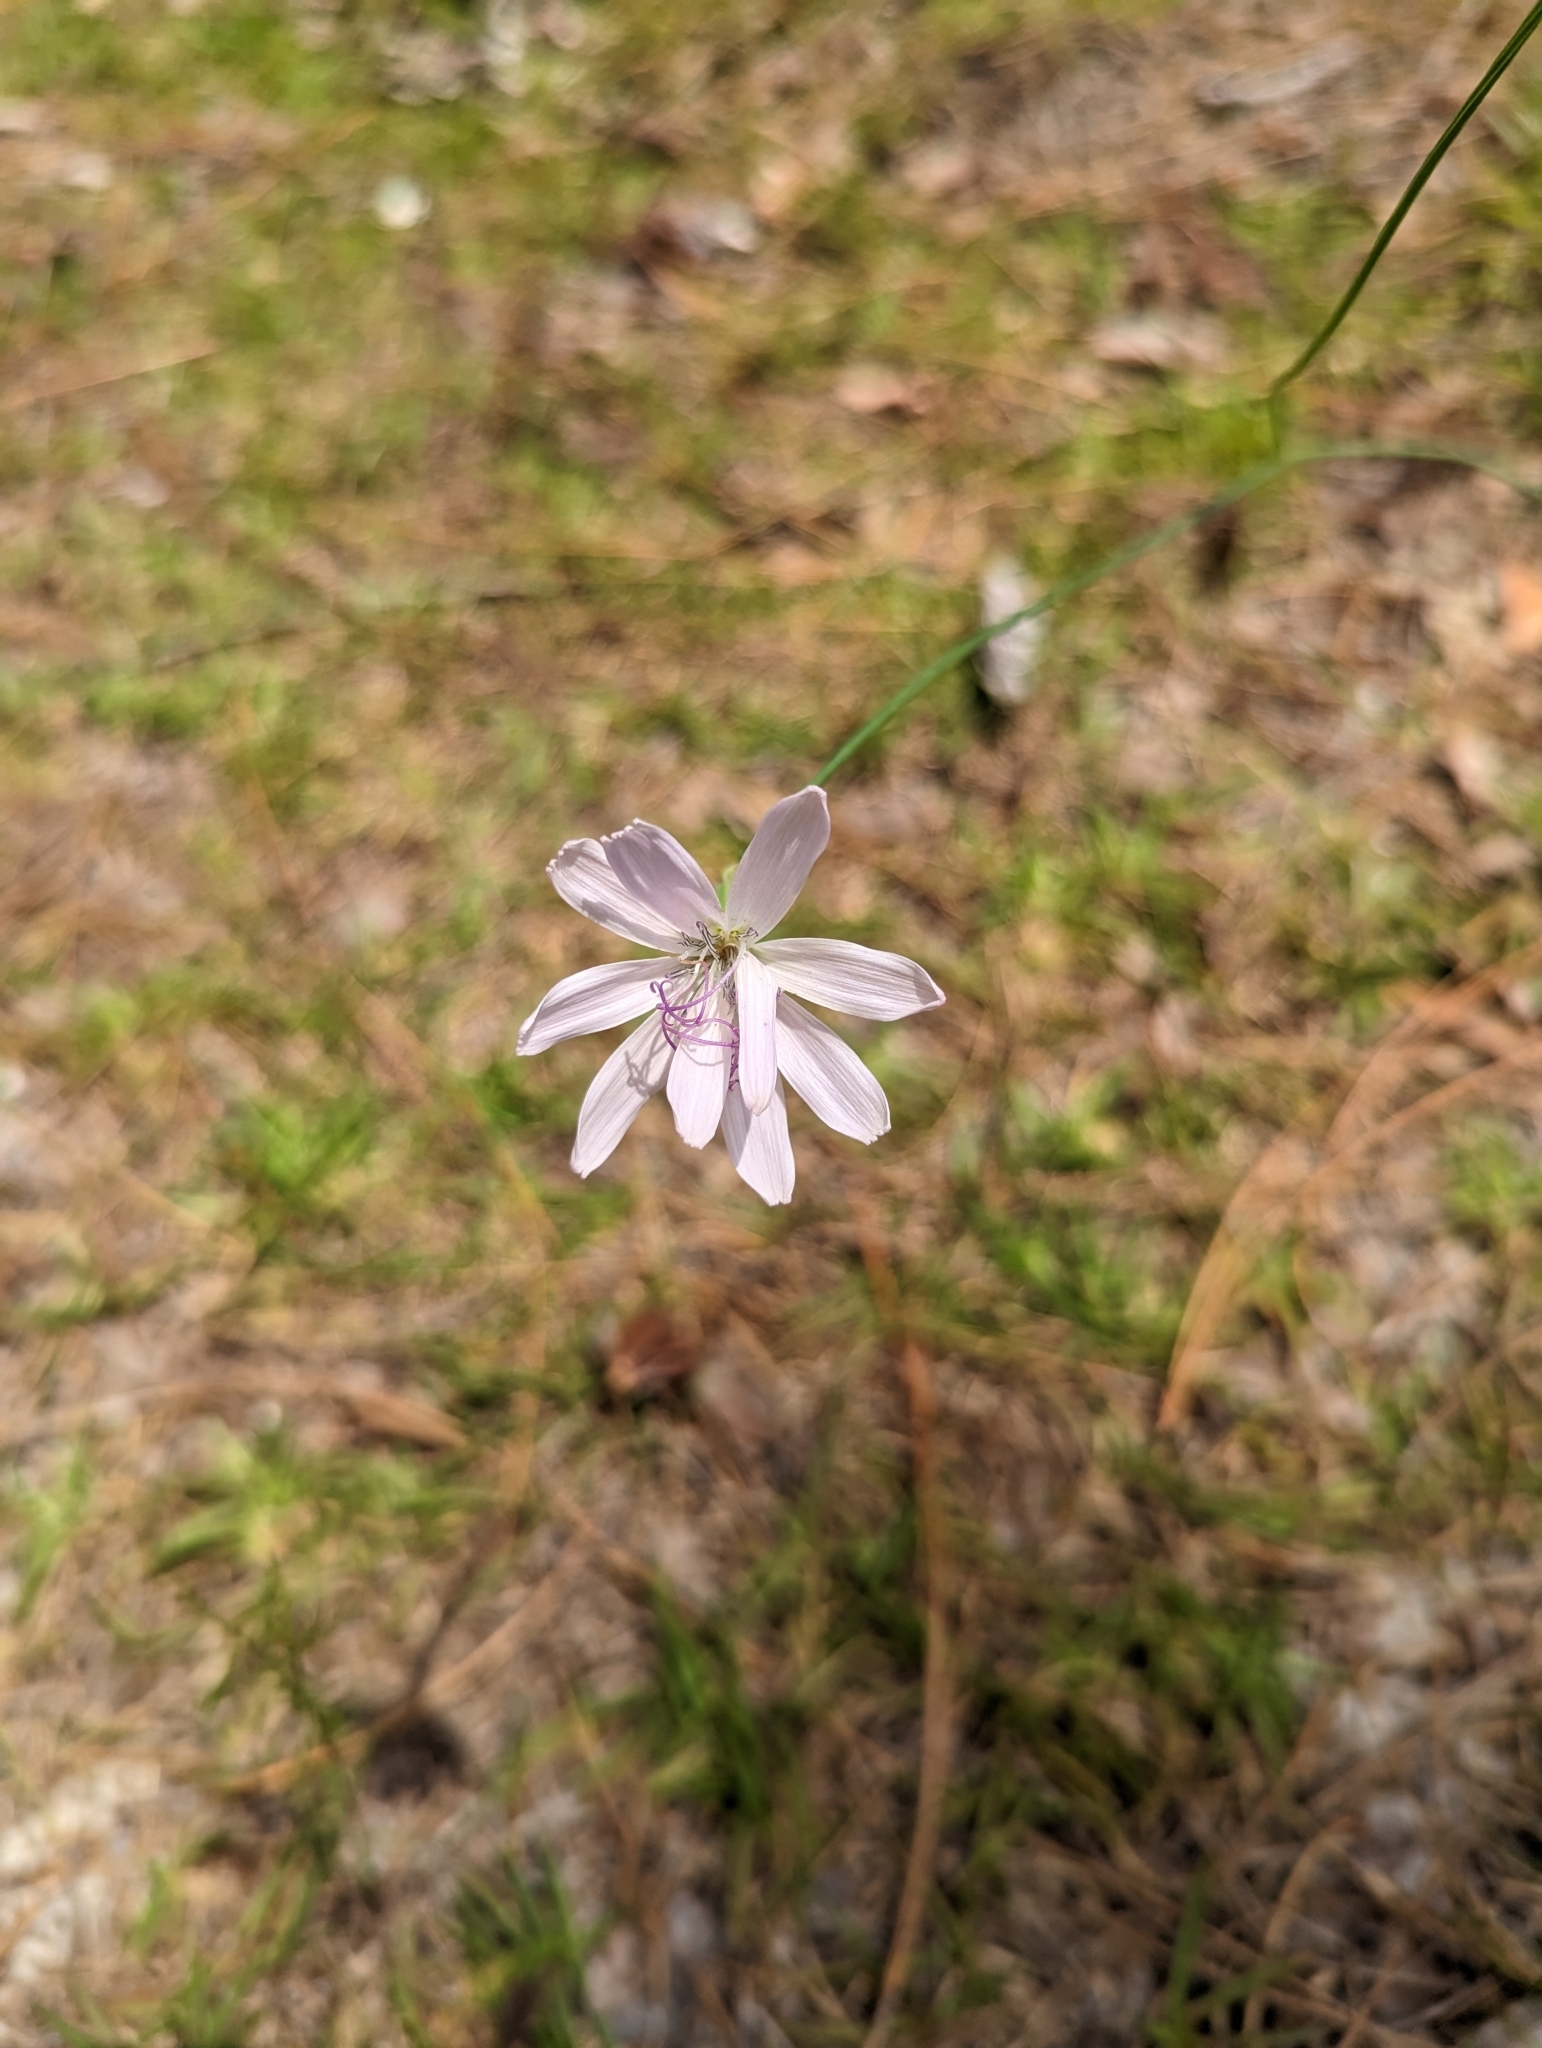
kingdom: Plantae
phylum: Tracheophyta
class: Magnoliopsida
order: Asterales
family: Asteraceae
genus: Lygodesmia
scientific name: Lygodesmia aphylla
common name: Rose-rush
